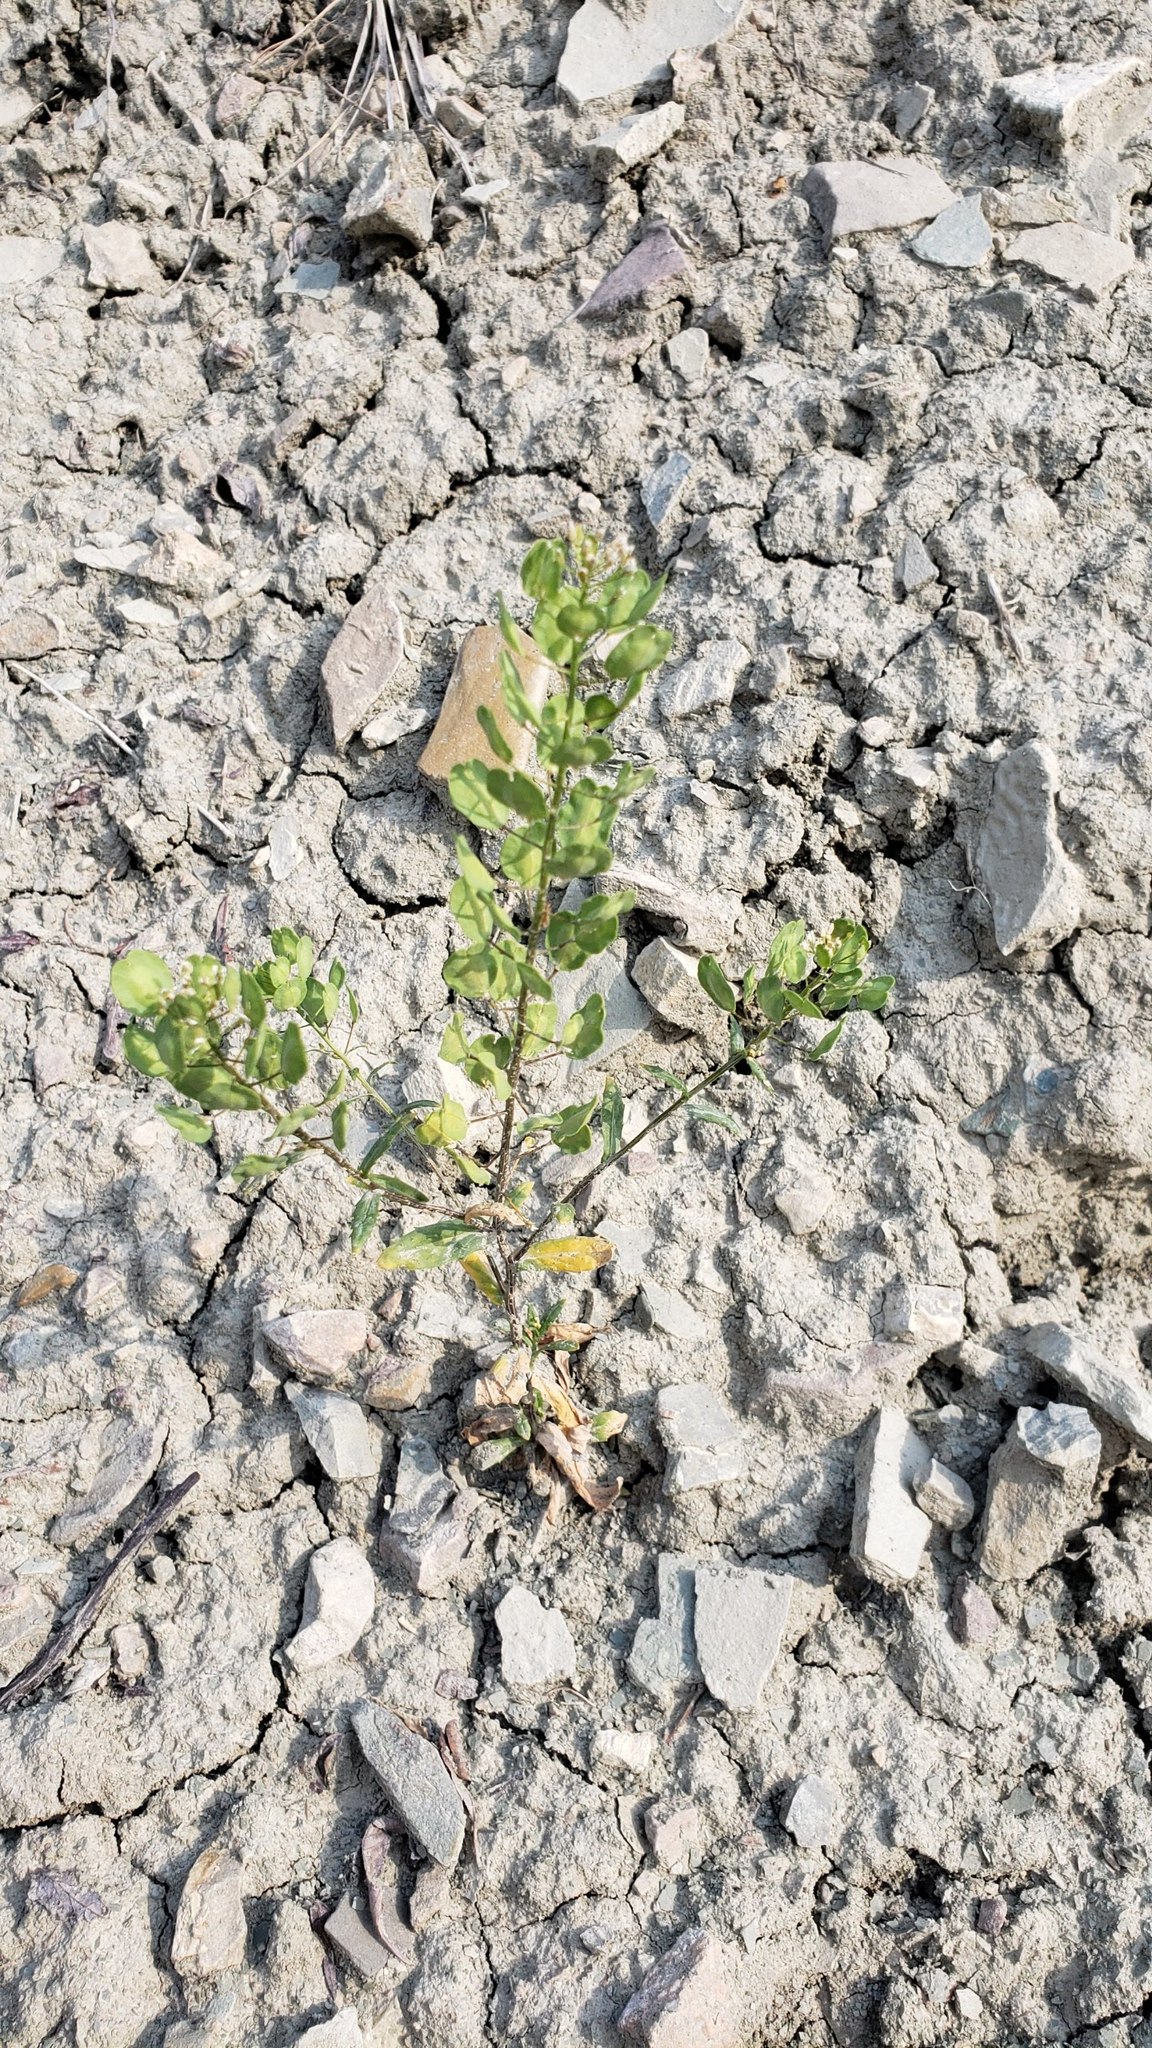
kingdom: Plantae
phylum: Tracheophyta
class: Magnoliopsida
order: Brassicales
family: Brassicaceae
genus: Thlaspi
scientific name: Thlaspi arvense
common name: Field pennycress
